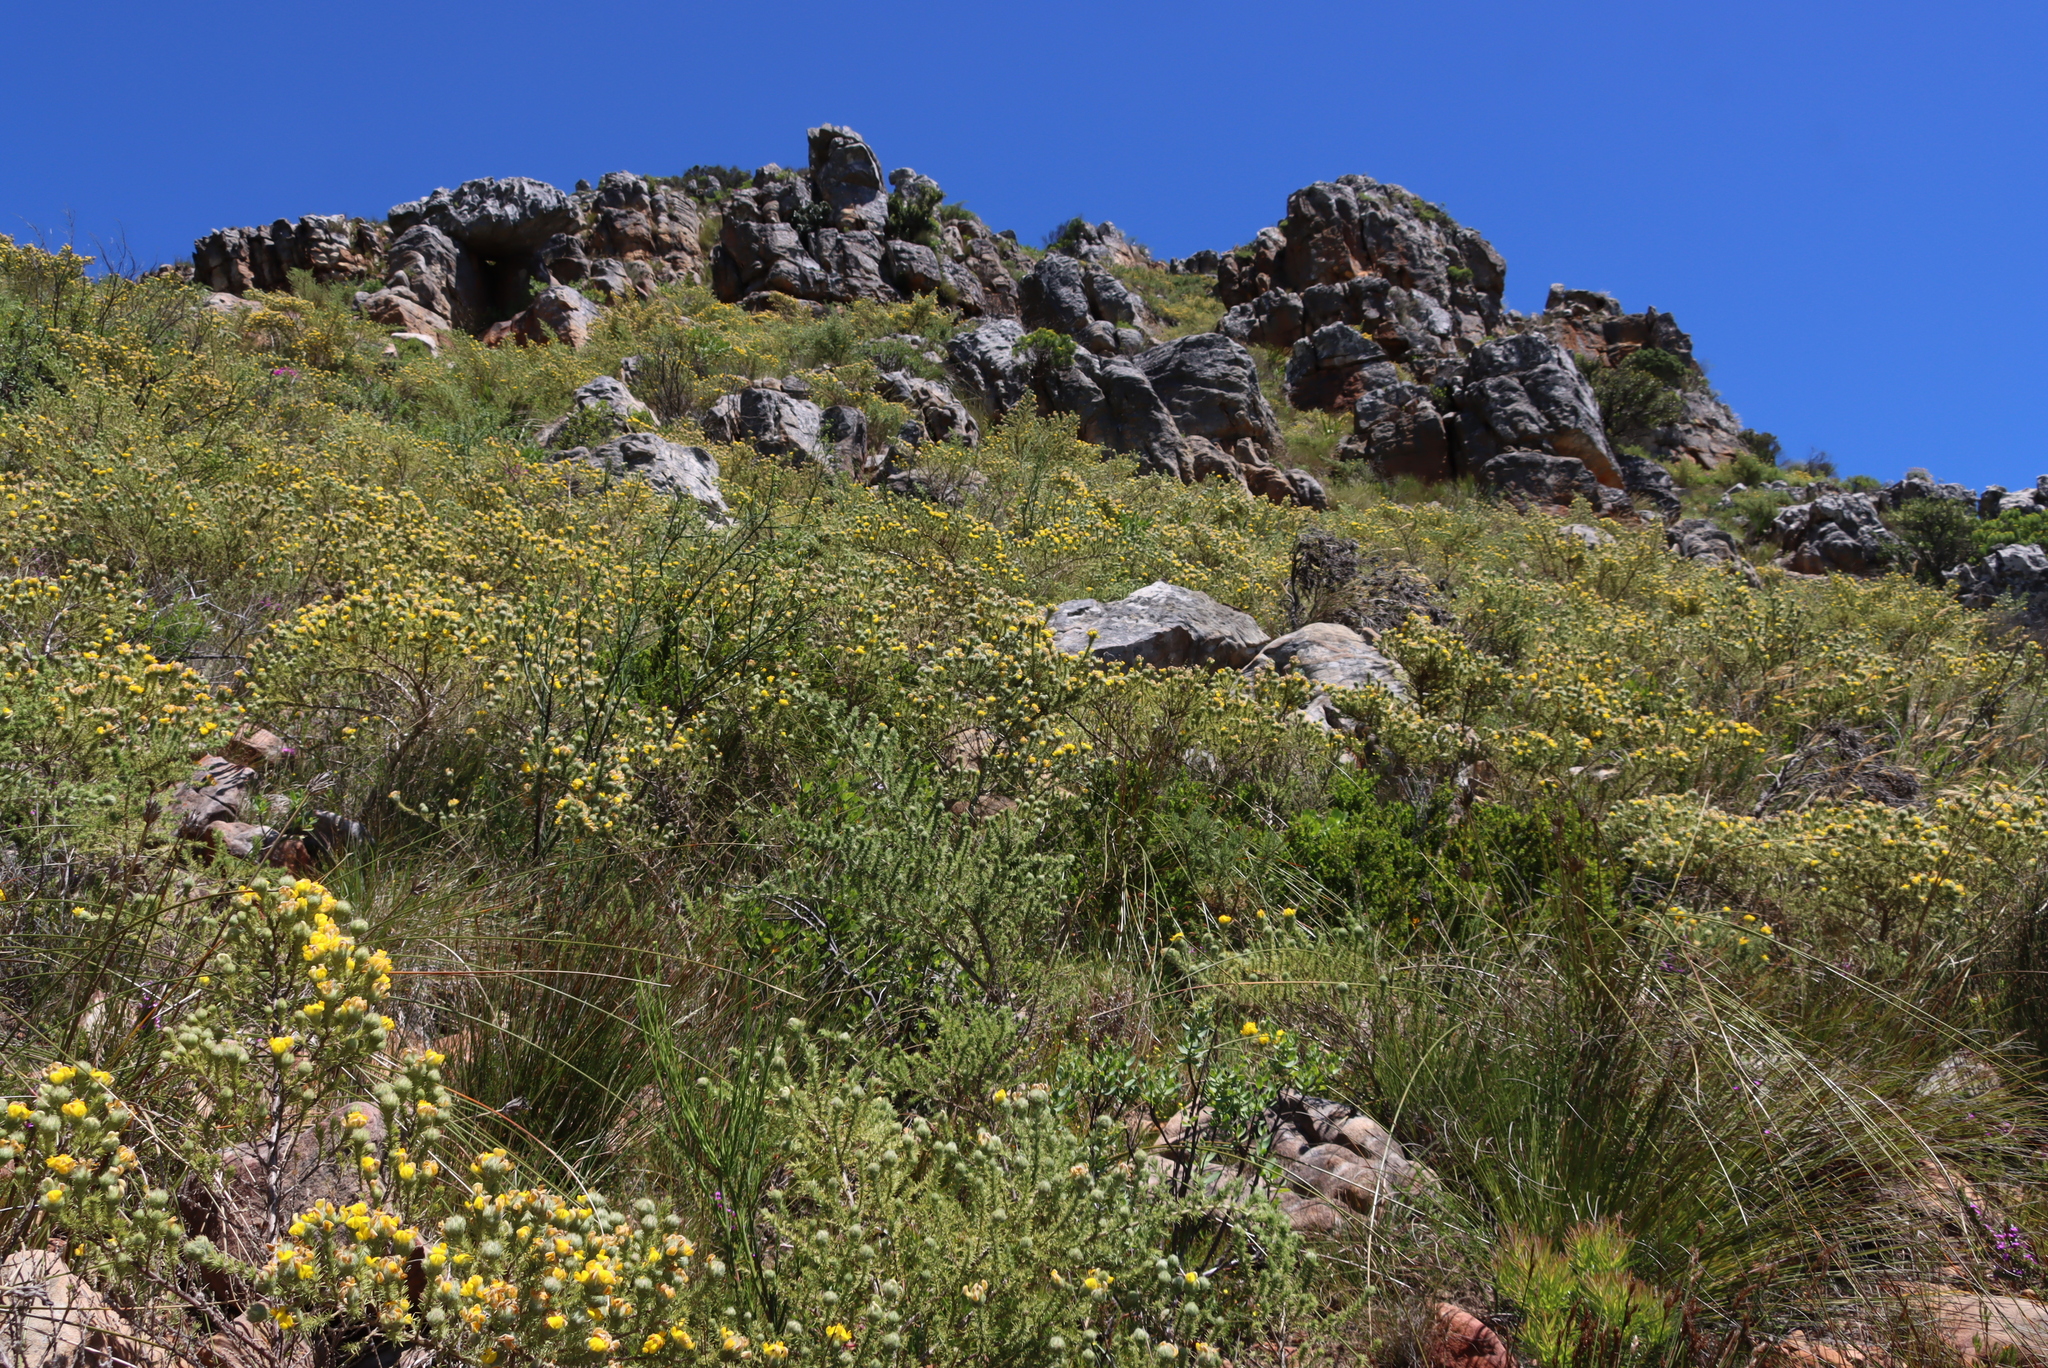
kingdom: Plantae
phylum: Tracheophyta
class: Magnoliopsida
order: Fabales
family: Fabaceae
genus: Aspalathus
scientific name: Aspalathus chenopoda
